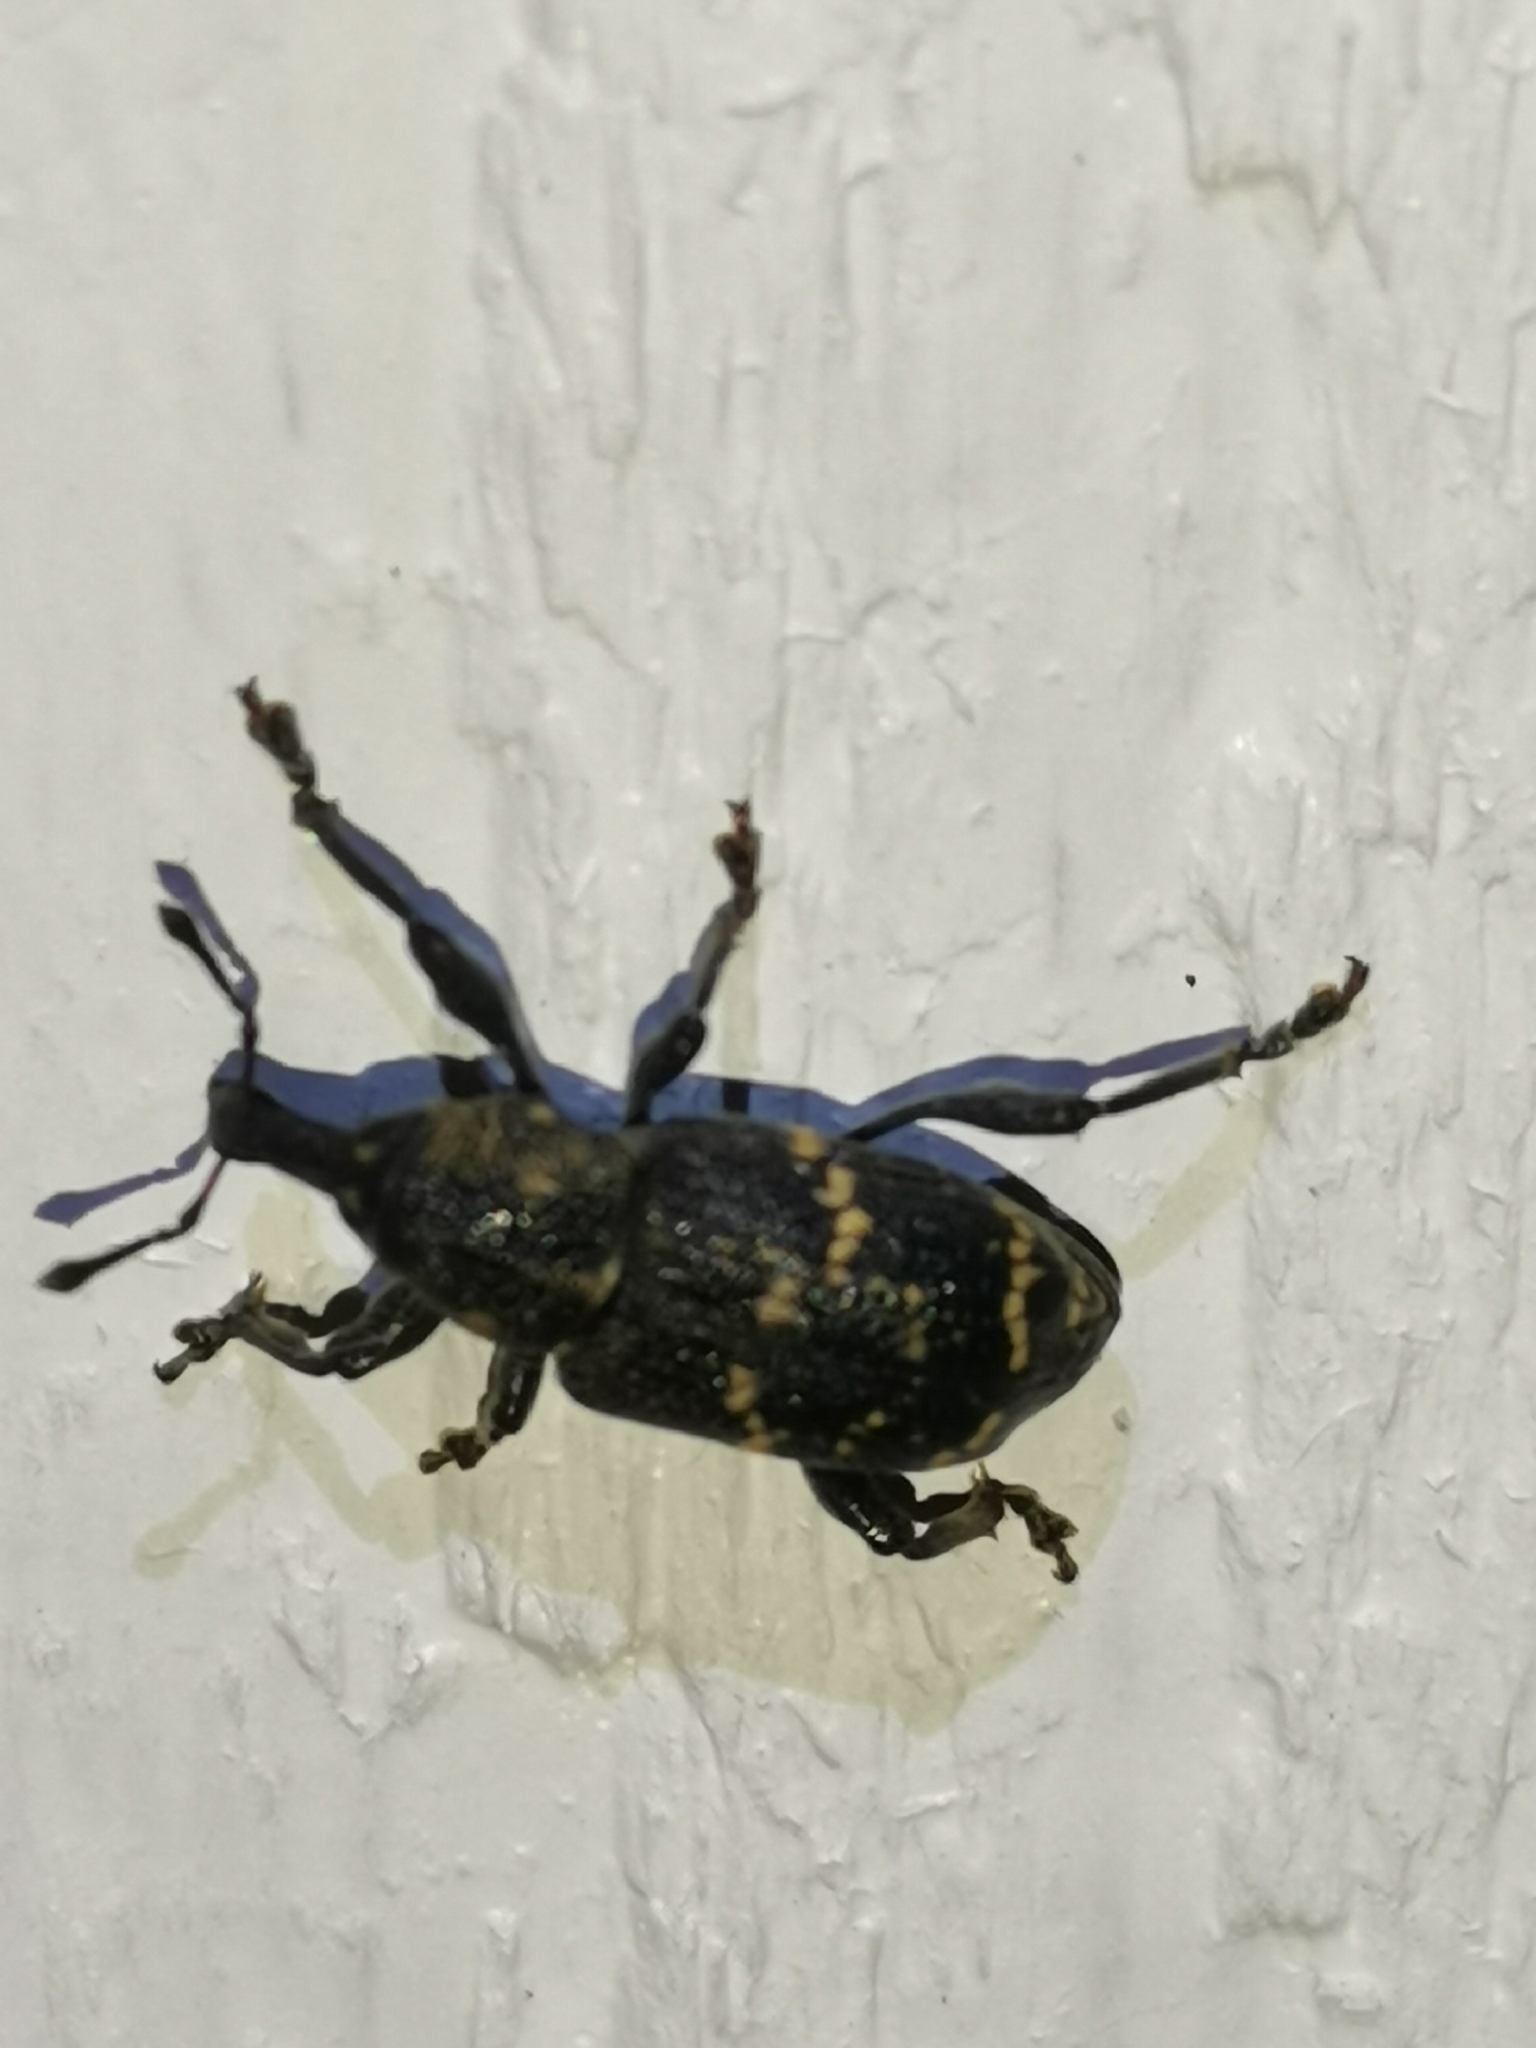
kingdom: Animalia
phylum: Arthropoda
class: Insecta
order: Coleoptera
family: Curculionidae
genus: Hylobius
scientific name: Hylobius abietis
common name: Large pine weevil
